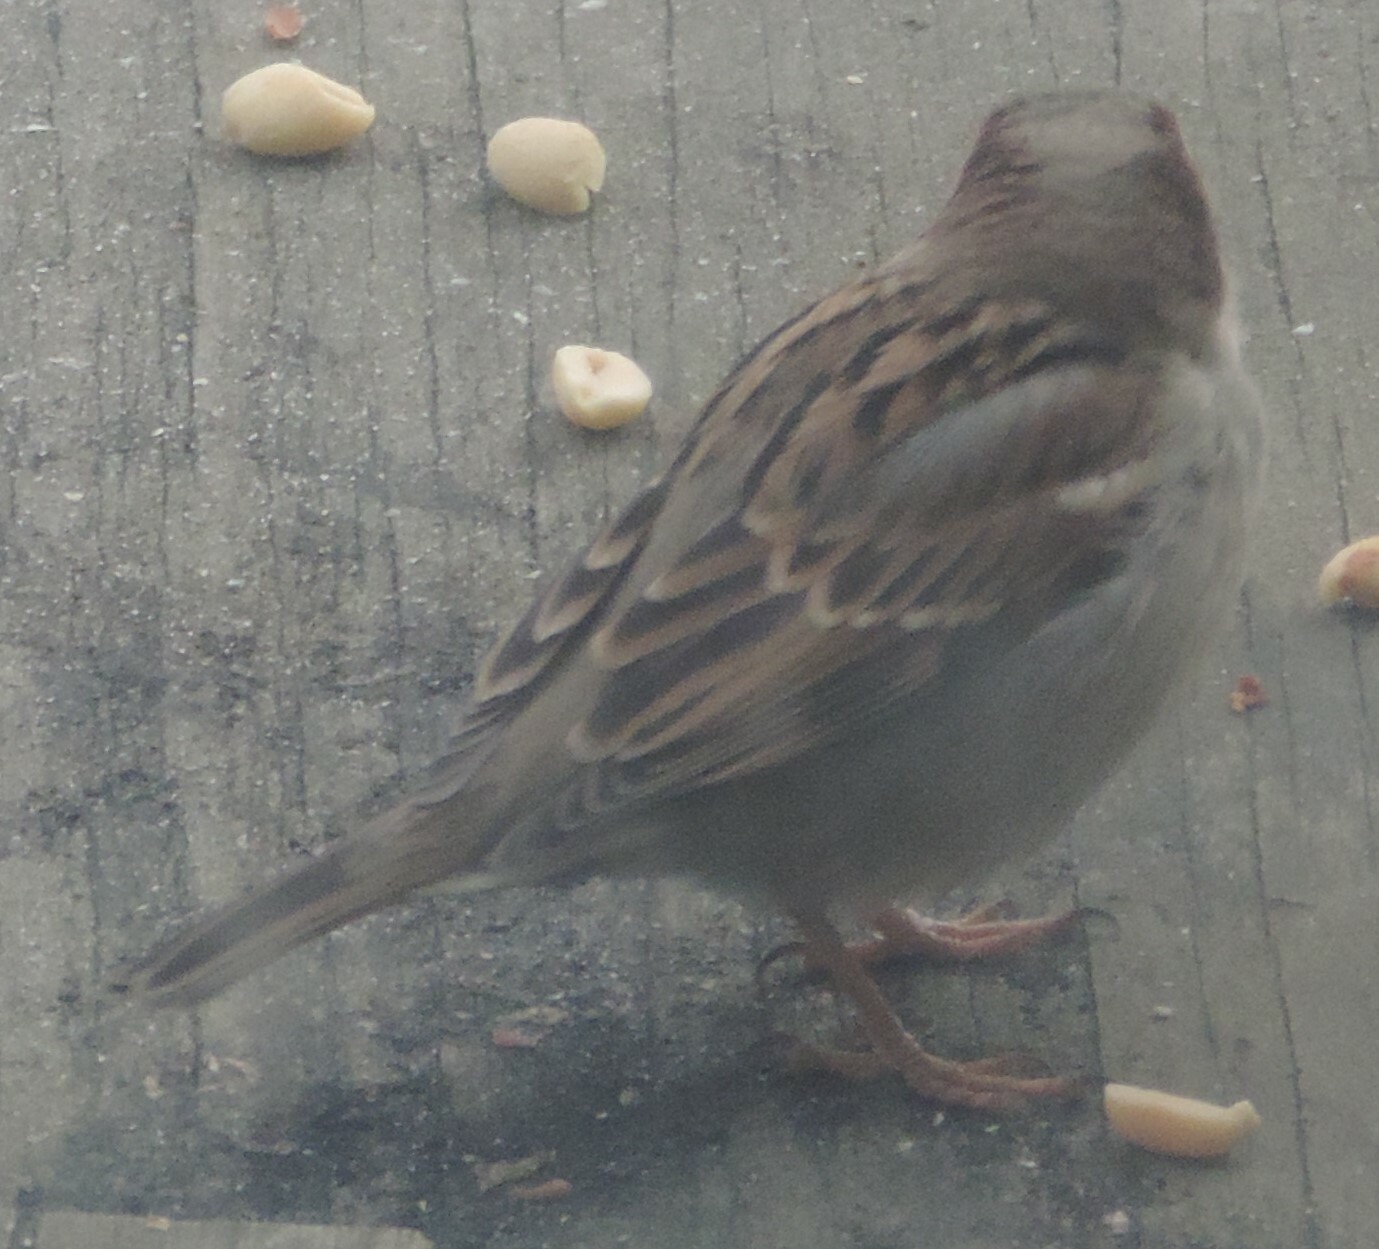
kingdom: Animalia
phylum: Chordata
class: Aves
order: Passeriformes
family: Passeridae
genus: Passer
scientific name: Passer domesticus
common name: House sparrow
